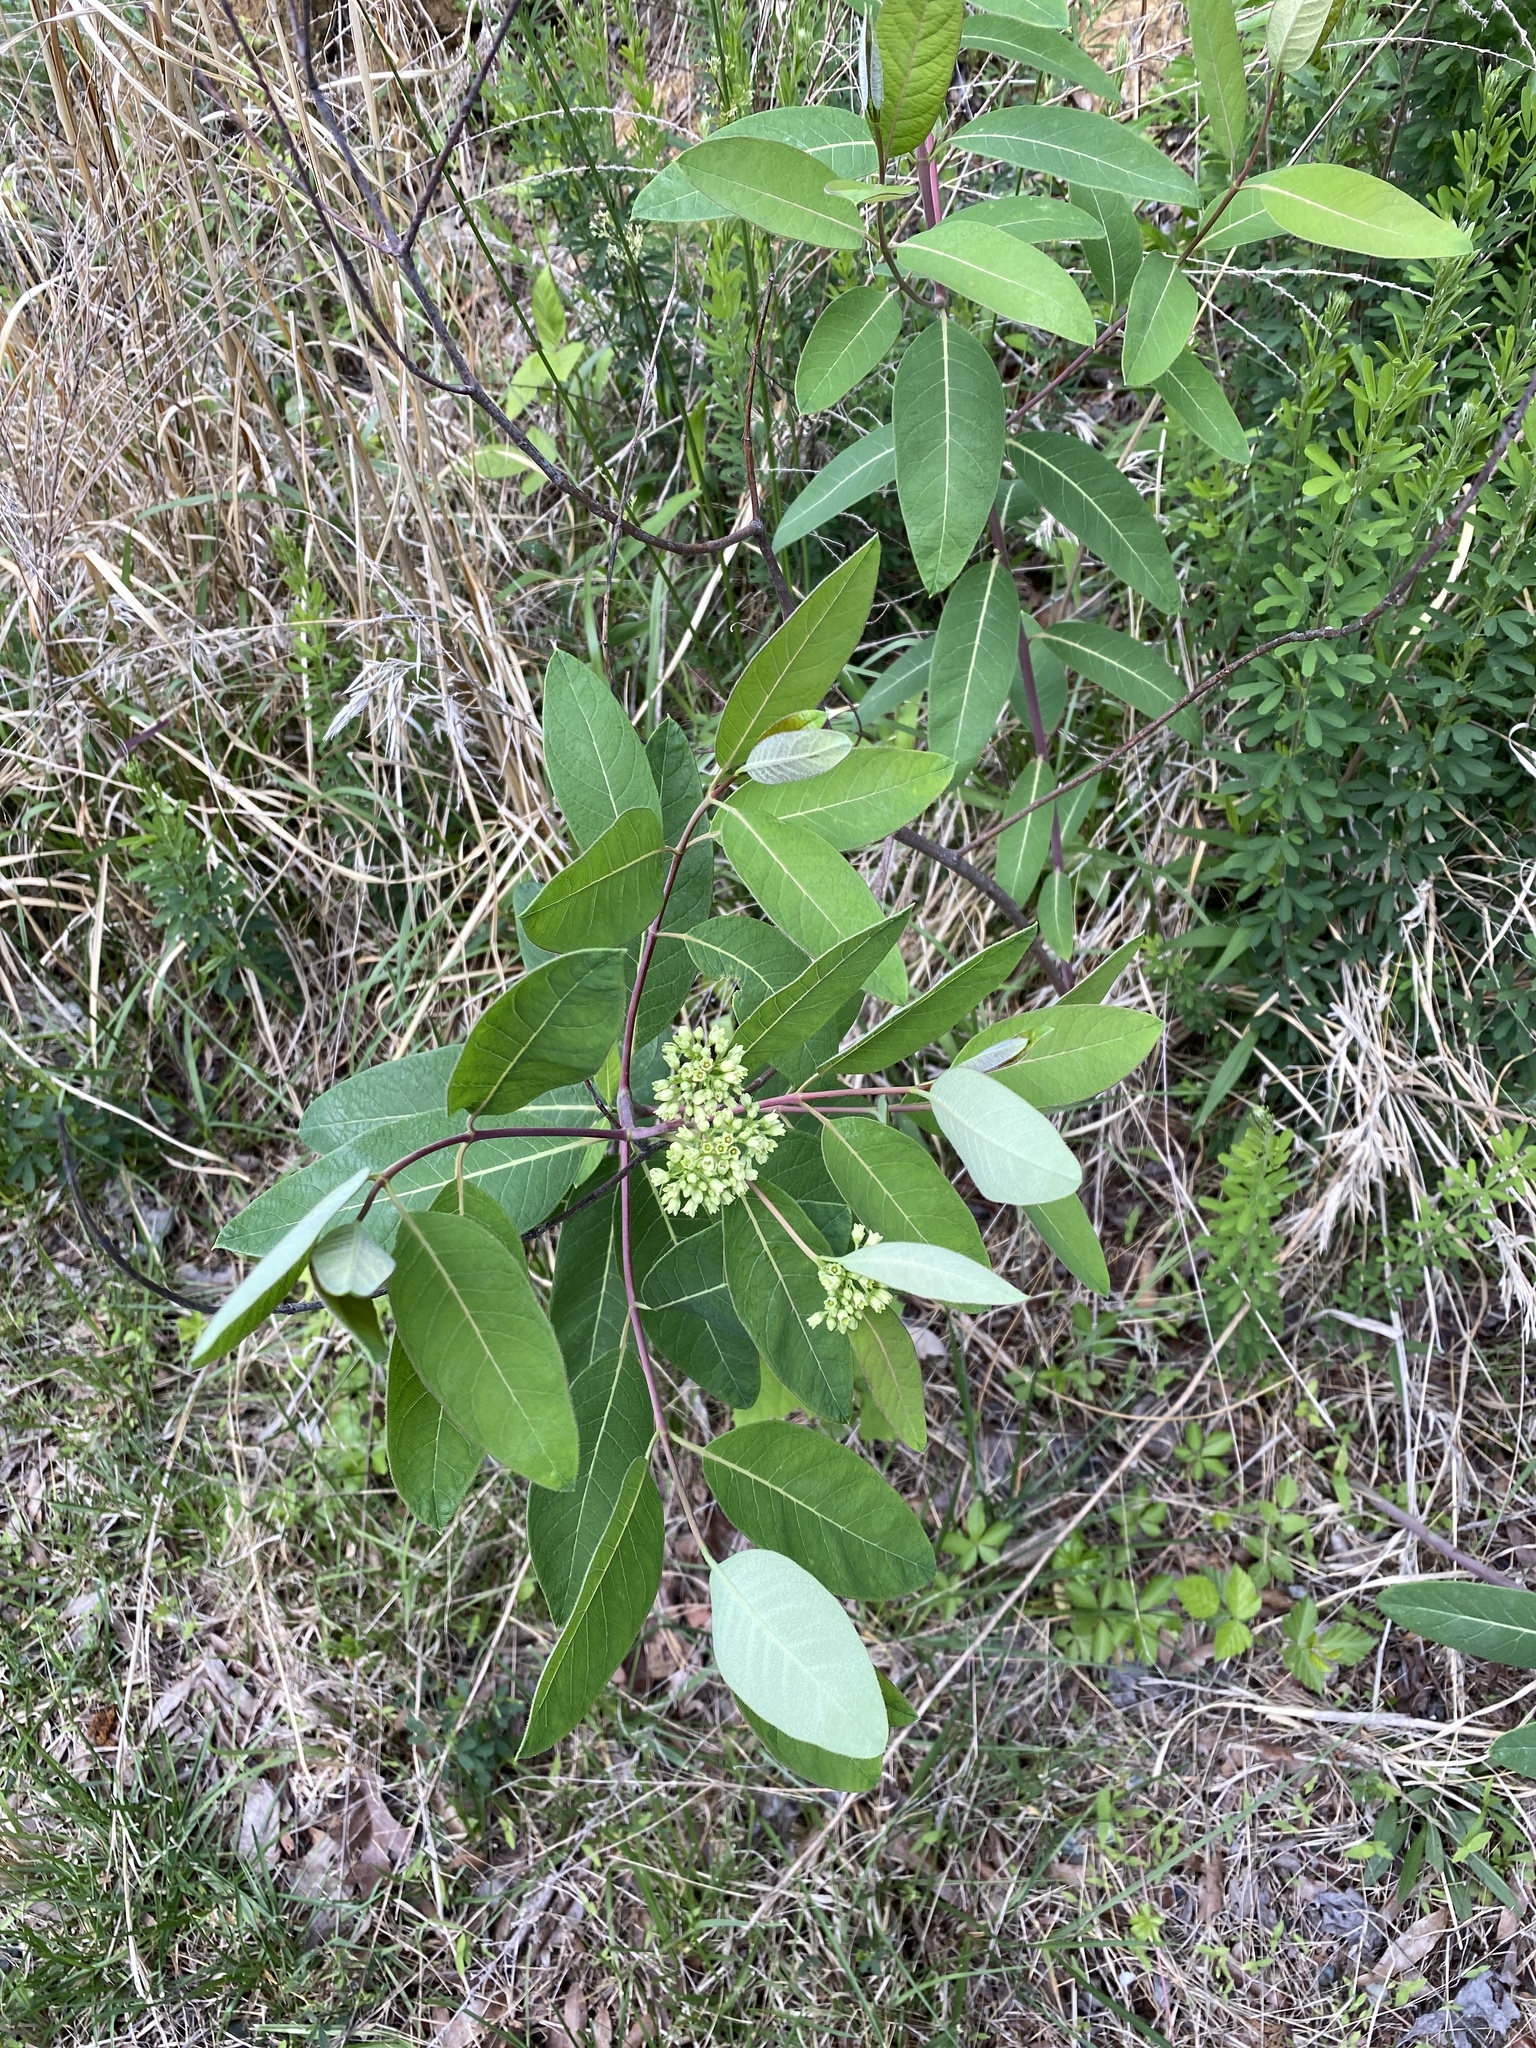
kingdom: Plantae
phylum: Tracheophyta
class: Magnoliopsida
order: Gentianales
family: Apocynaceae
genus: Apocynum
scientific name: Apocynum cannabinum
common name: Hemp dogbane
